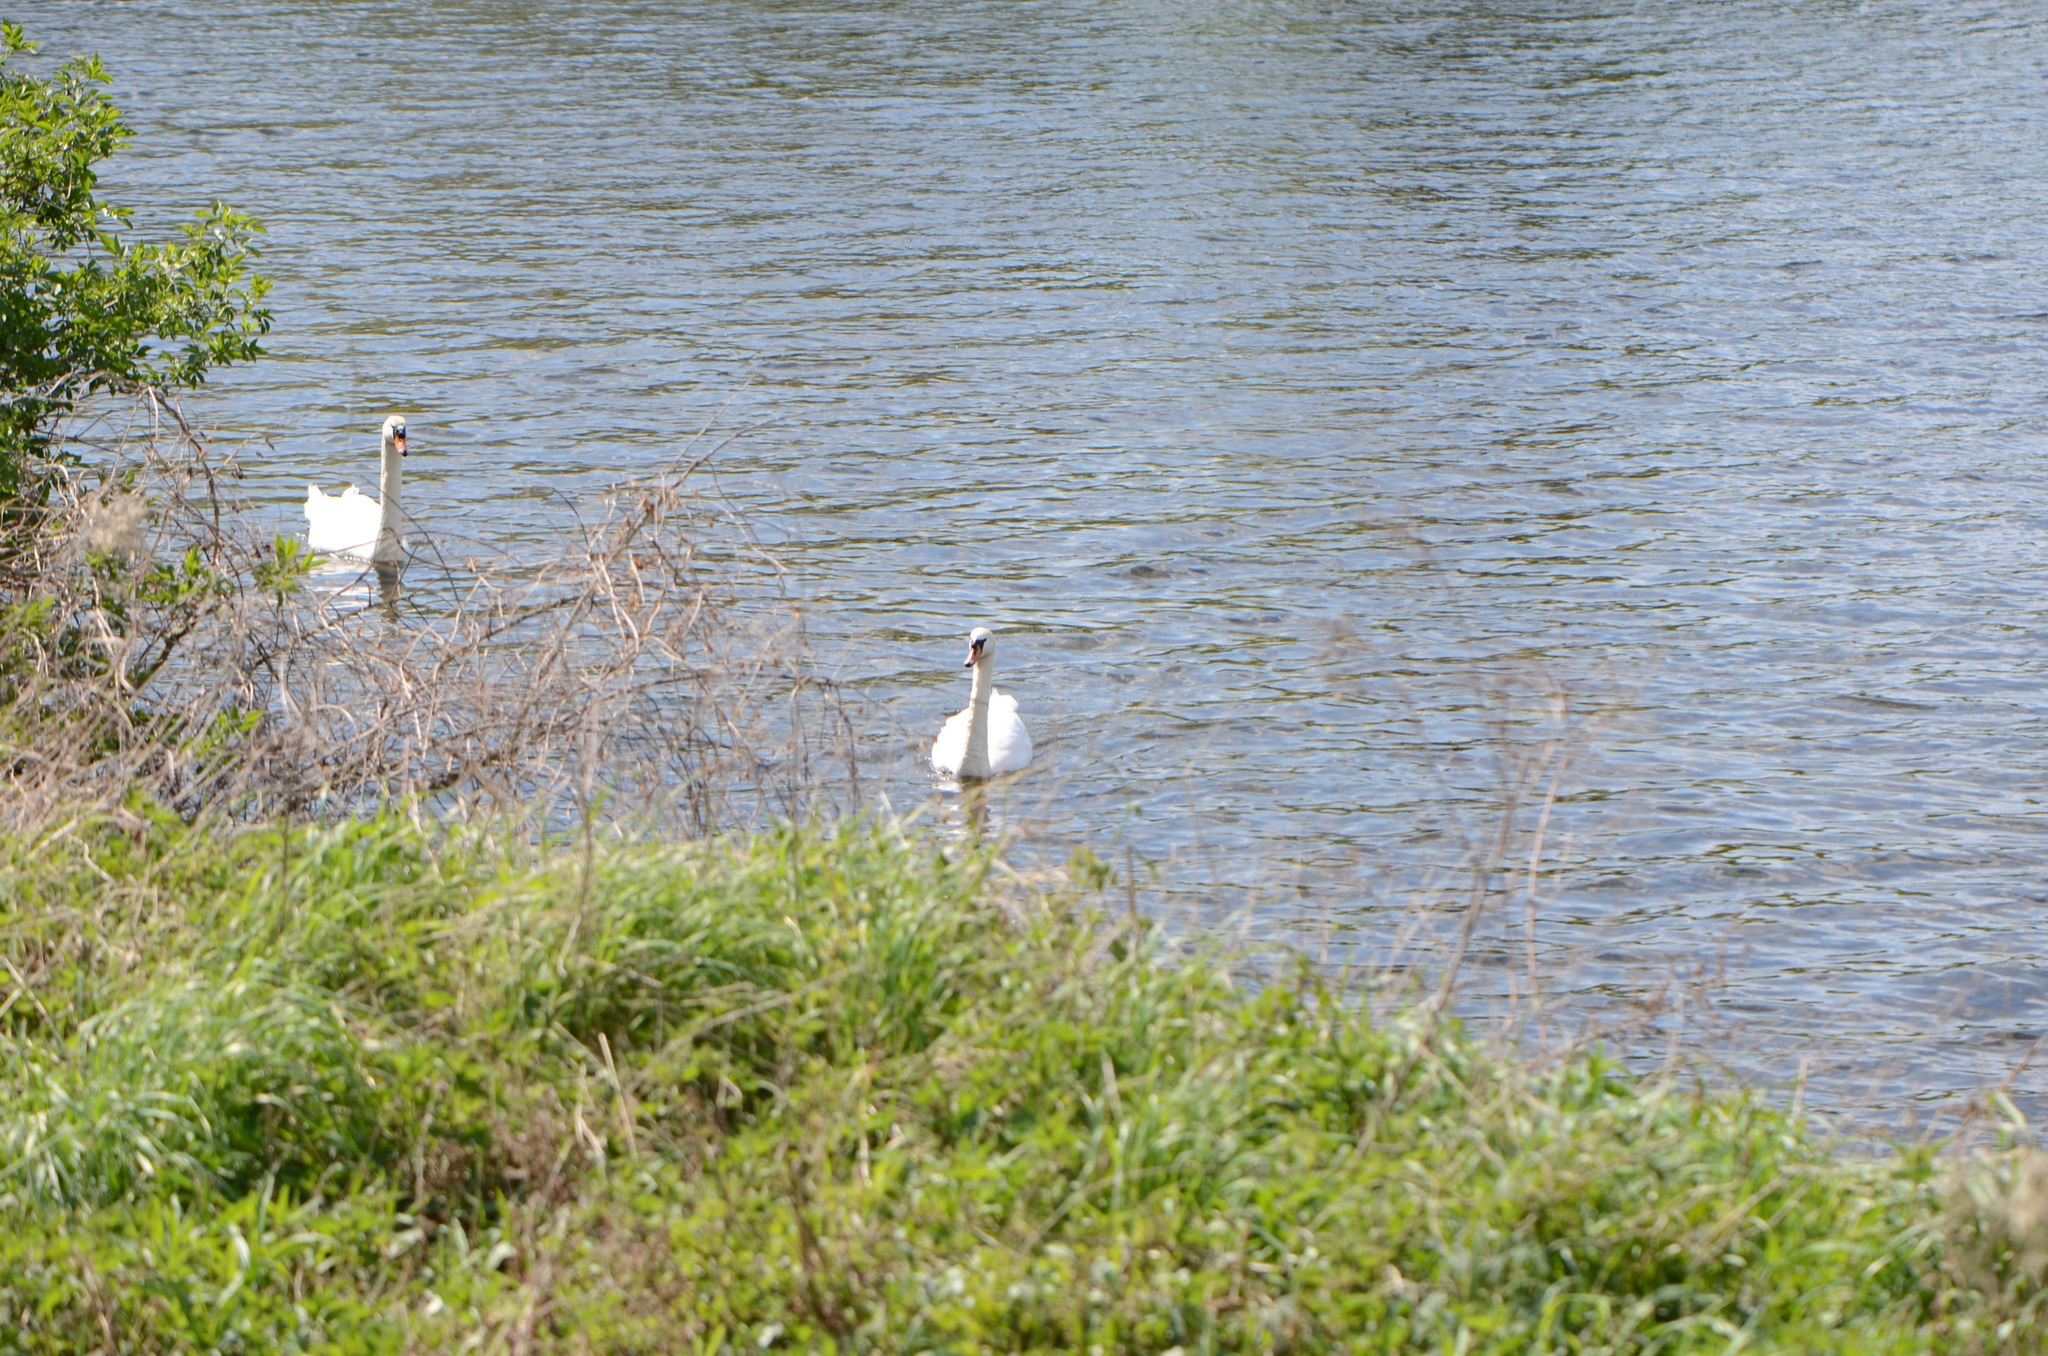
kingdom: Animalia
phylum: Chordata
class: Aves
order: Anseriformes
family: Anatidae
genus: Cygnus
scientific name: Cygnus olor
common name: Mute swan
